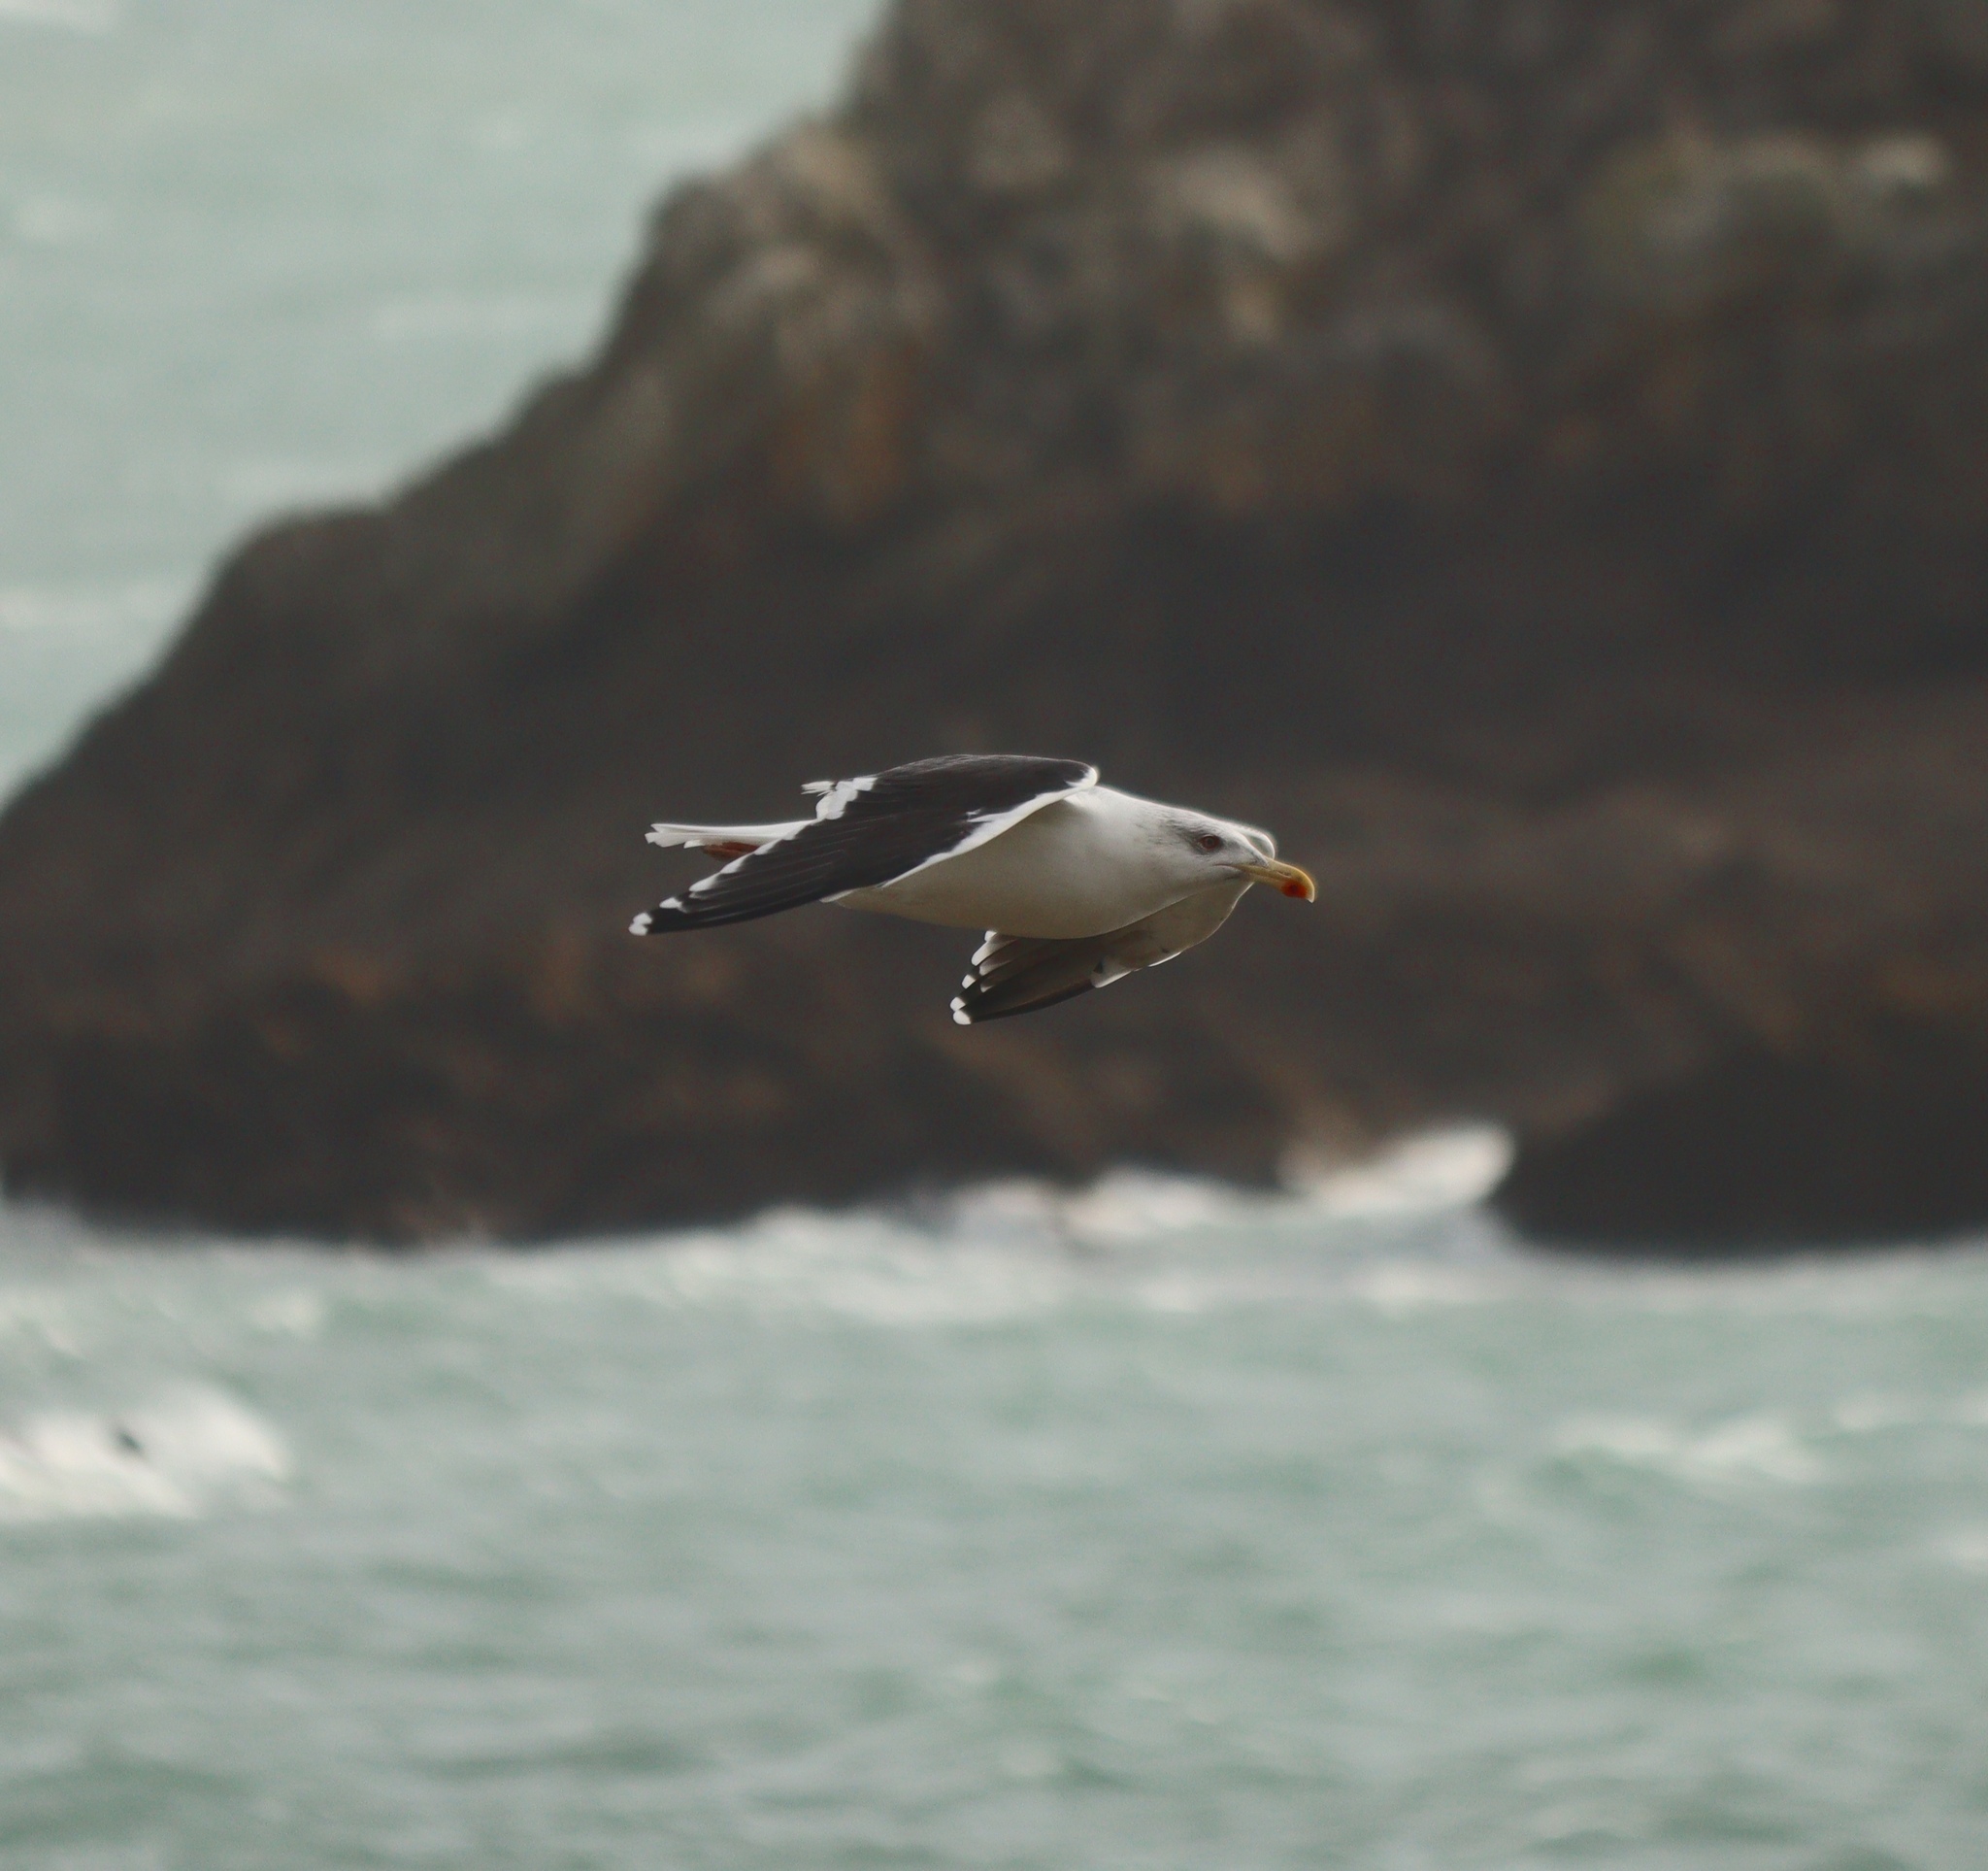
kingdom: Animalia
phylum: Chordata
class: Aves
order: Charadriiformes
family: Laridae
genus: Larus
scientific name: Larus marinus
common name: Great black-backed gull
